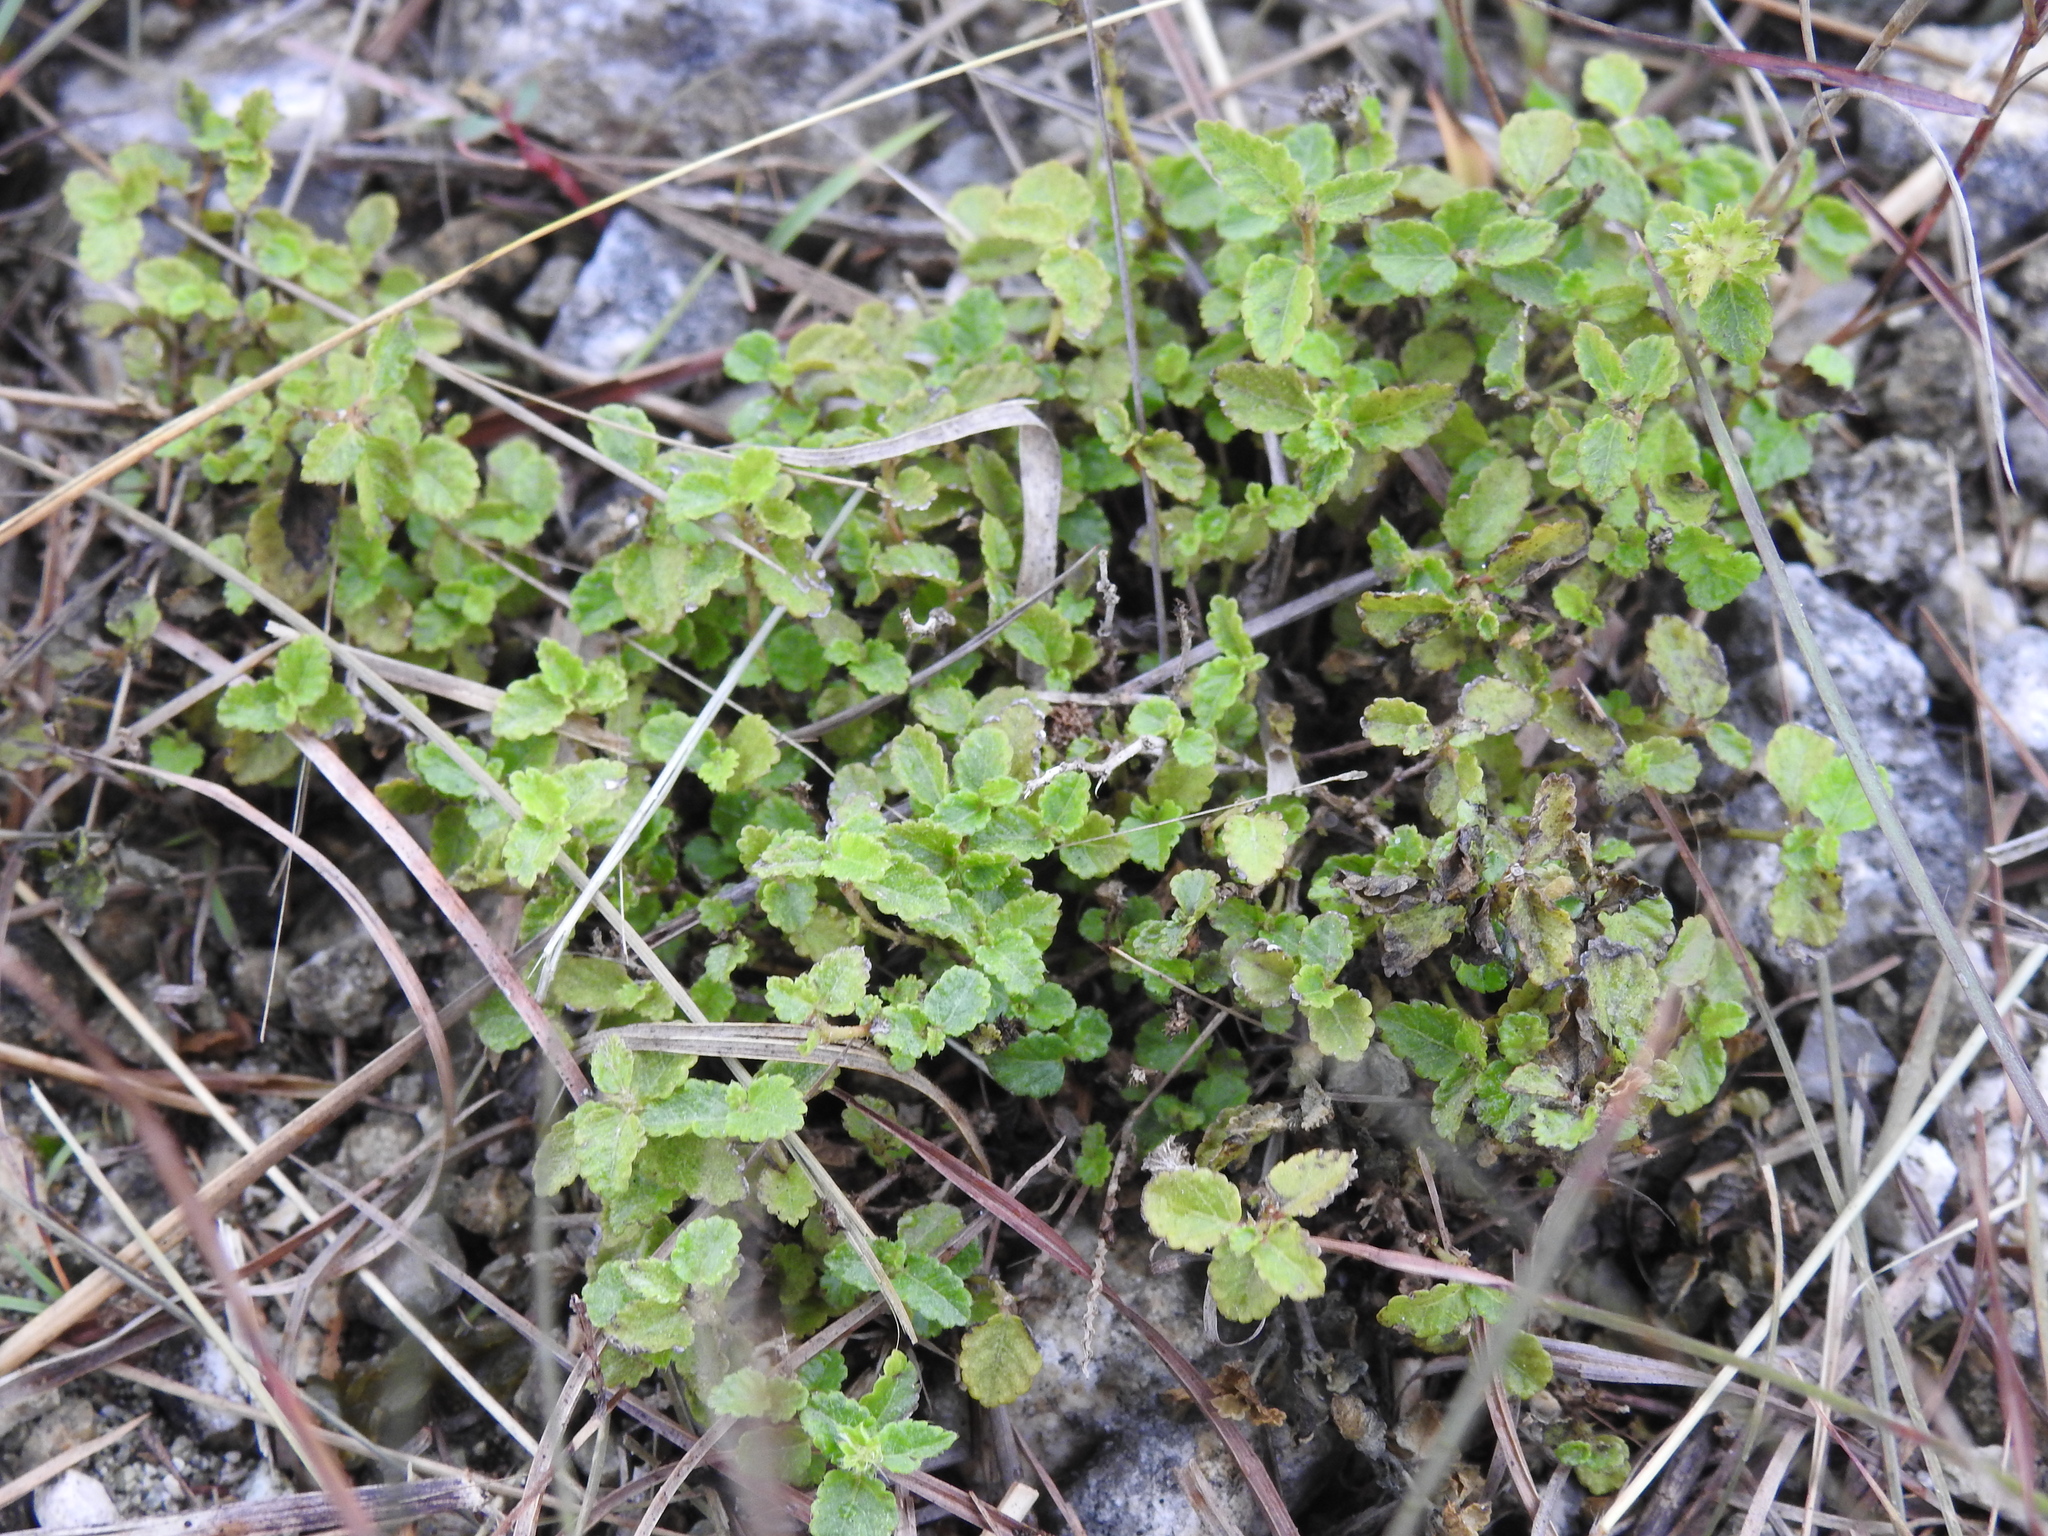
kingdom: Plantae
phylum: Tracheophyta
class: Magnoliopsida
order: Malpighiales
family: Euphorbiaceae
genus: Acalypha
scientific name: Acalypha chamaedrifolia
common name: Bastard copperleaf
